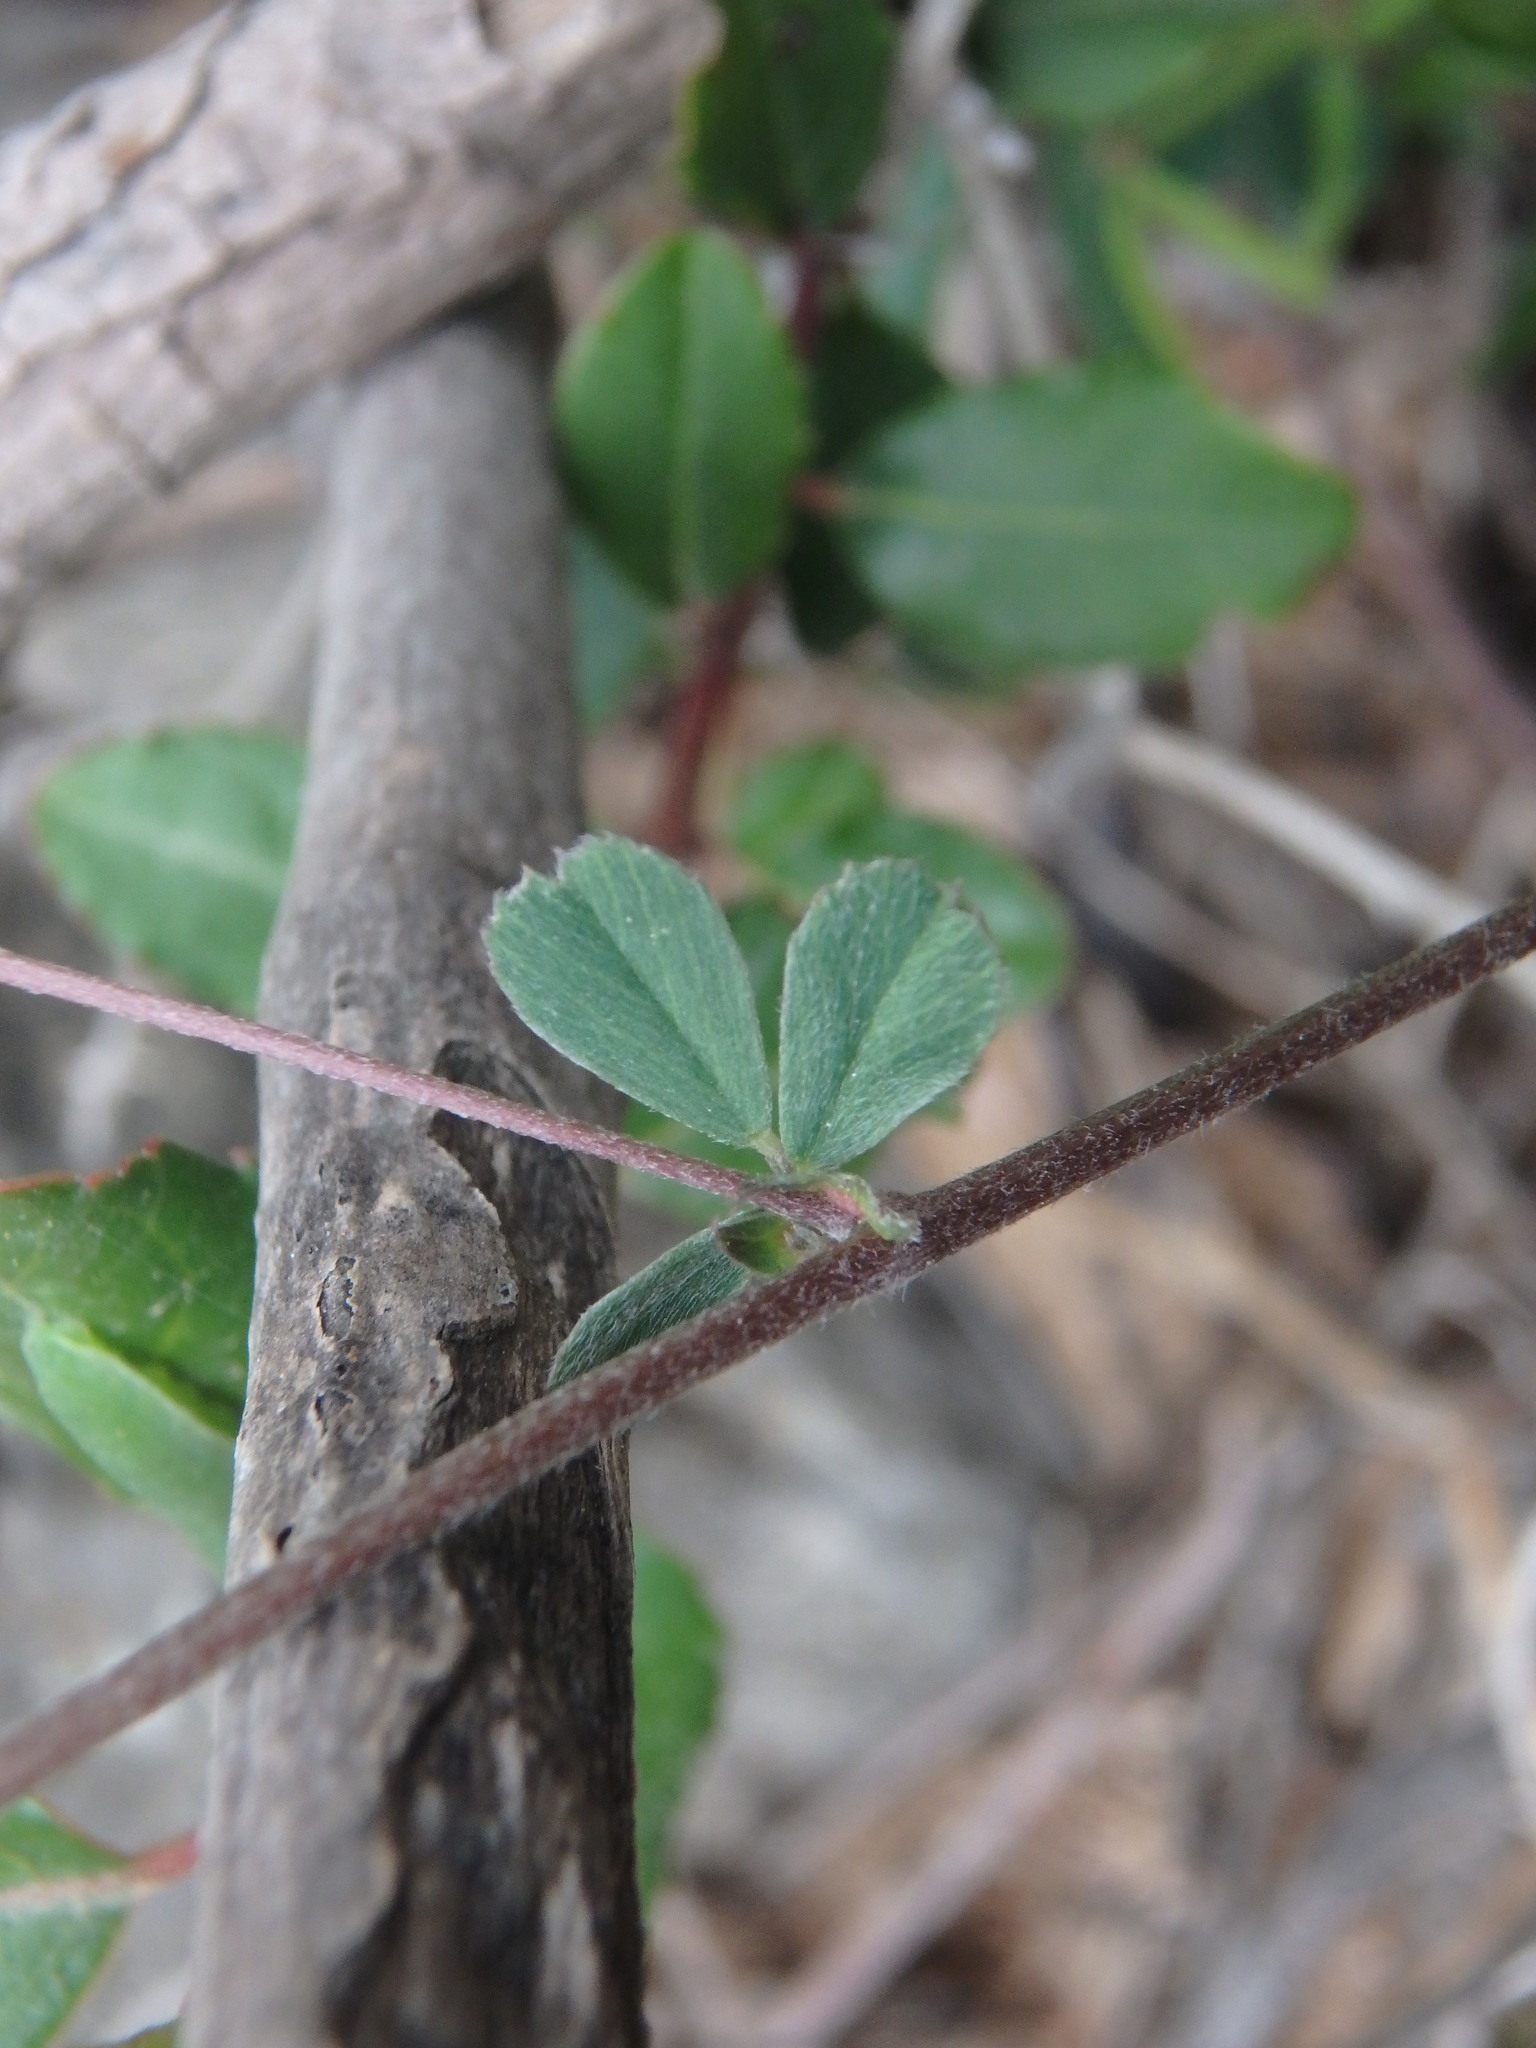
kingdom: Plantae
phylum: Tracheophyta
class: Magnoliopsida
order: Fabales
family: Fabaceae
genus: Medicago
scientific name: Medicago lupulina
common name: Black medick
